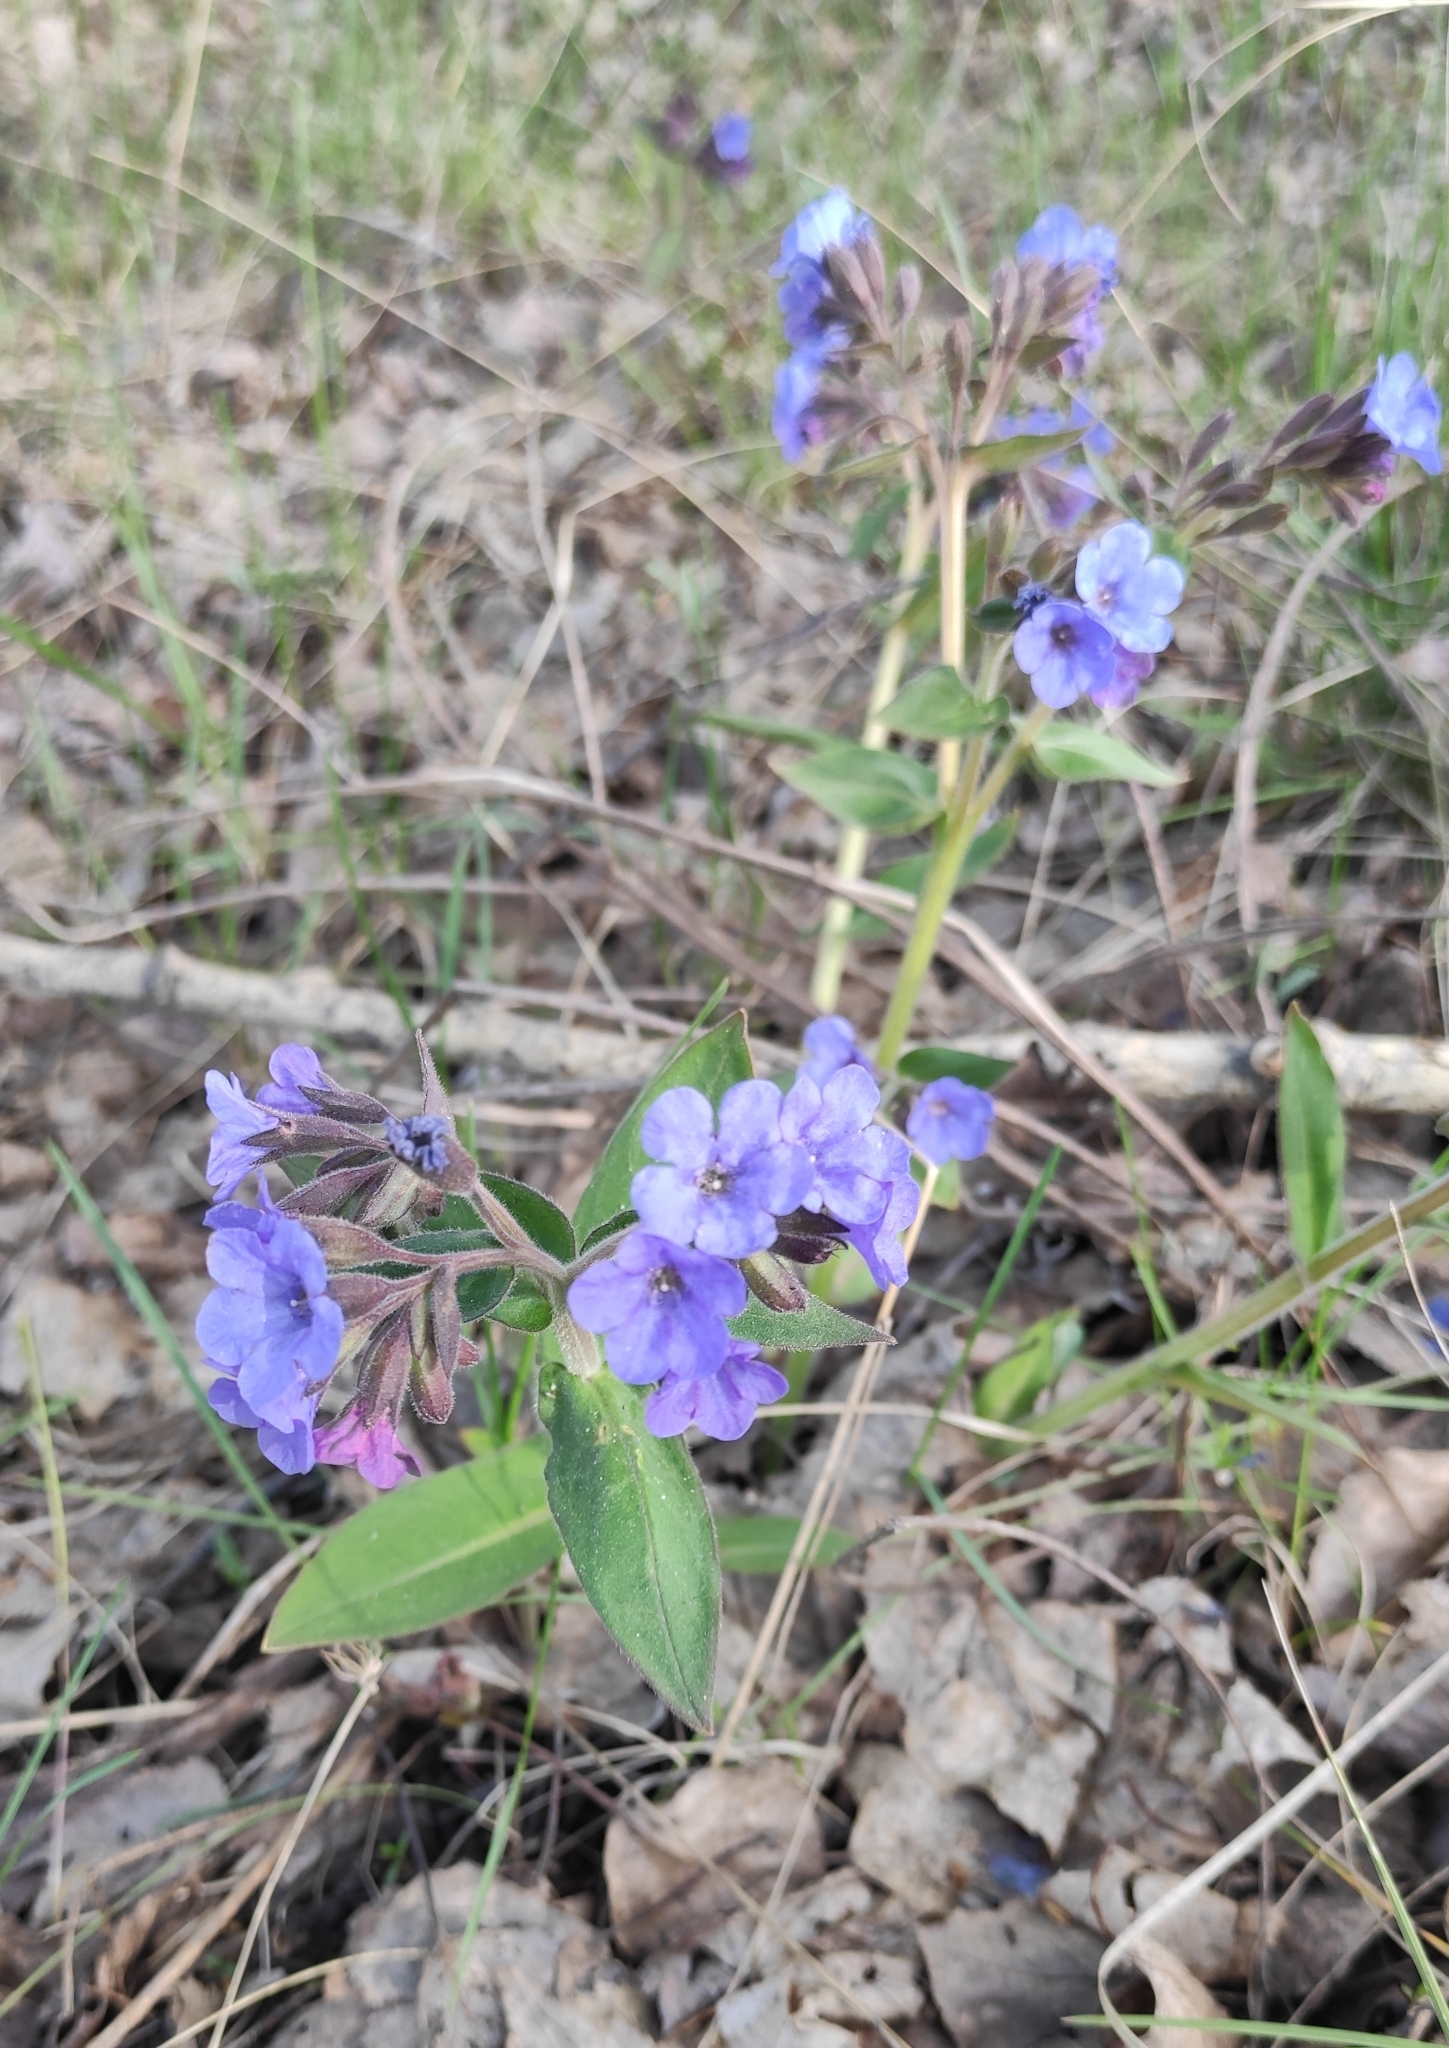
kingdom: Plantae
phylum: Tracheophyta
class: Magnoliopsida
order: Boraginales
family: Boraginaceae
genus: Pulmonaria
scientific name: Pulmonaria mollis
